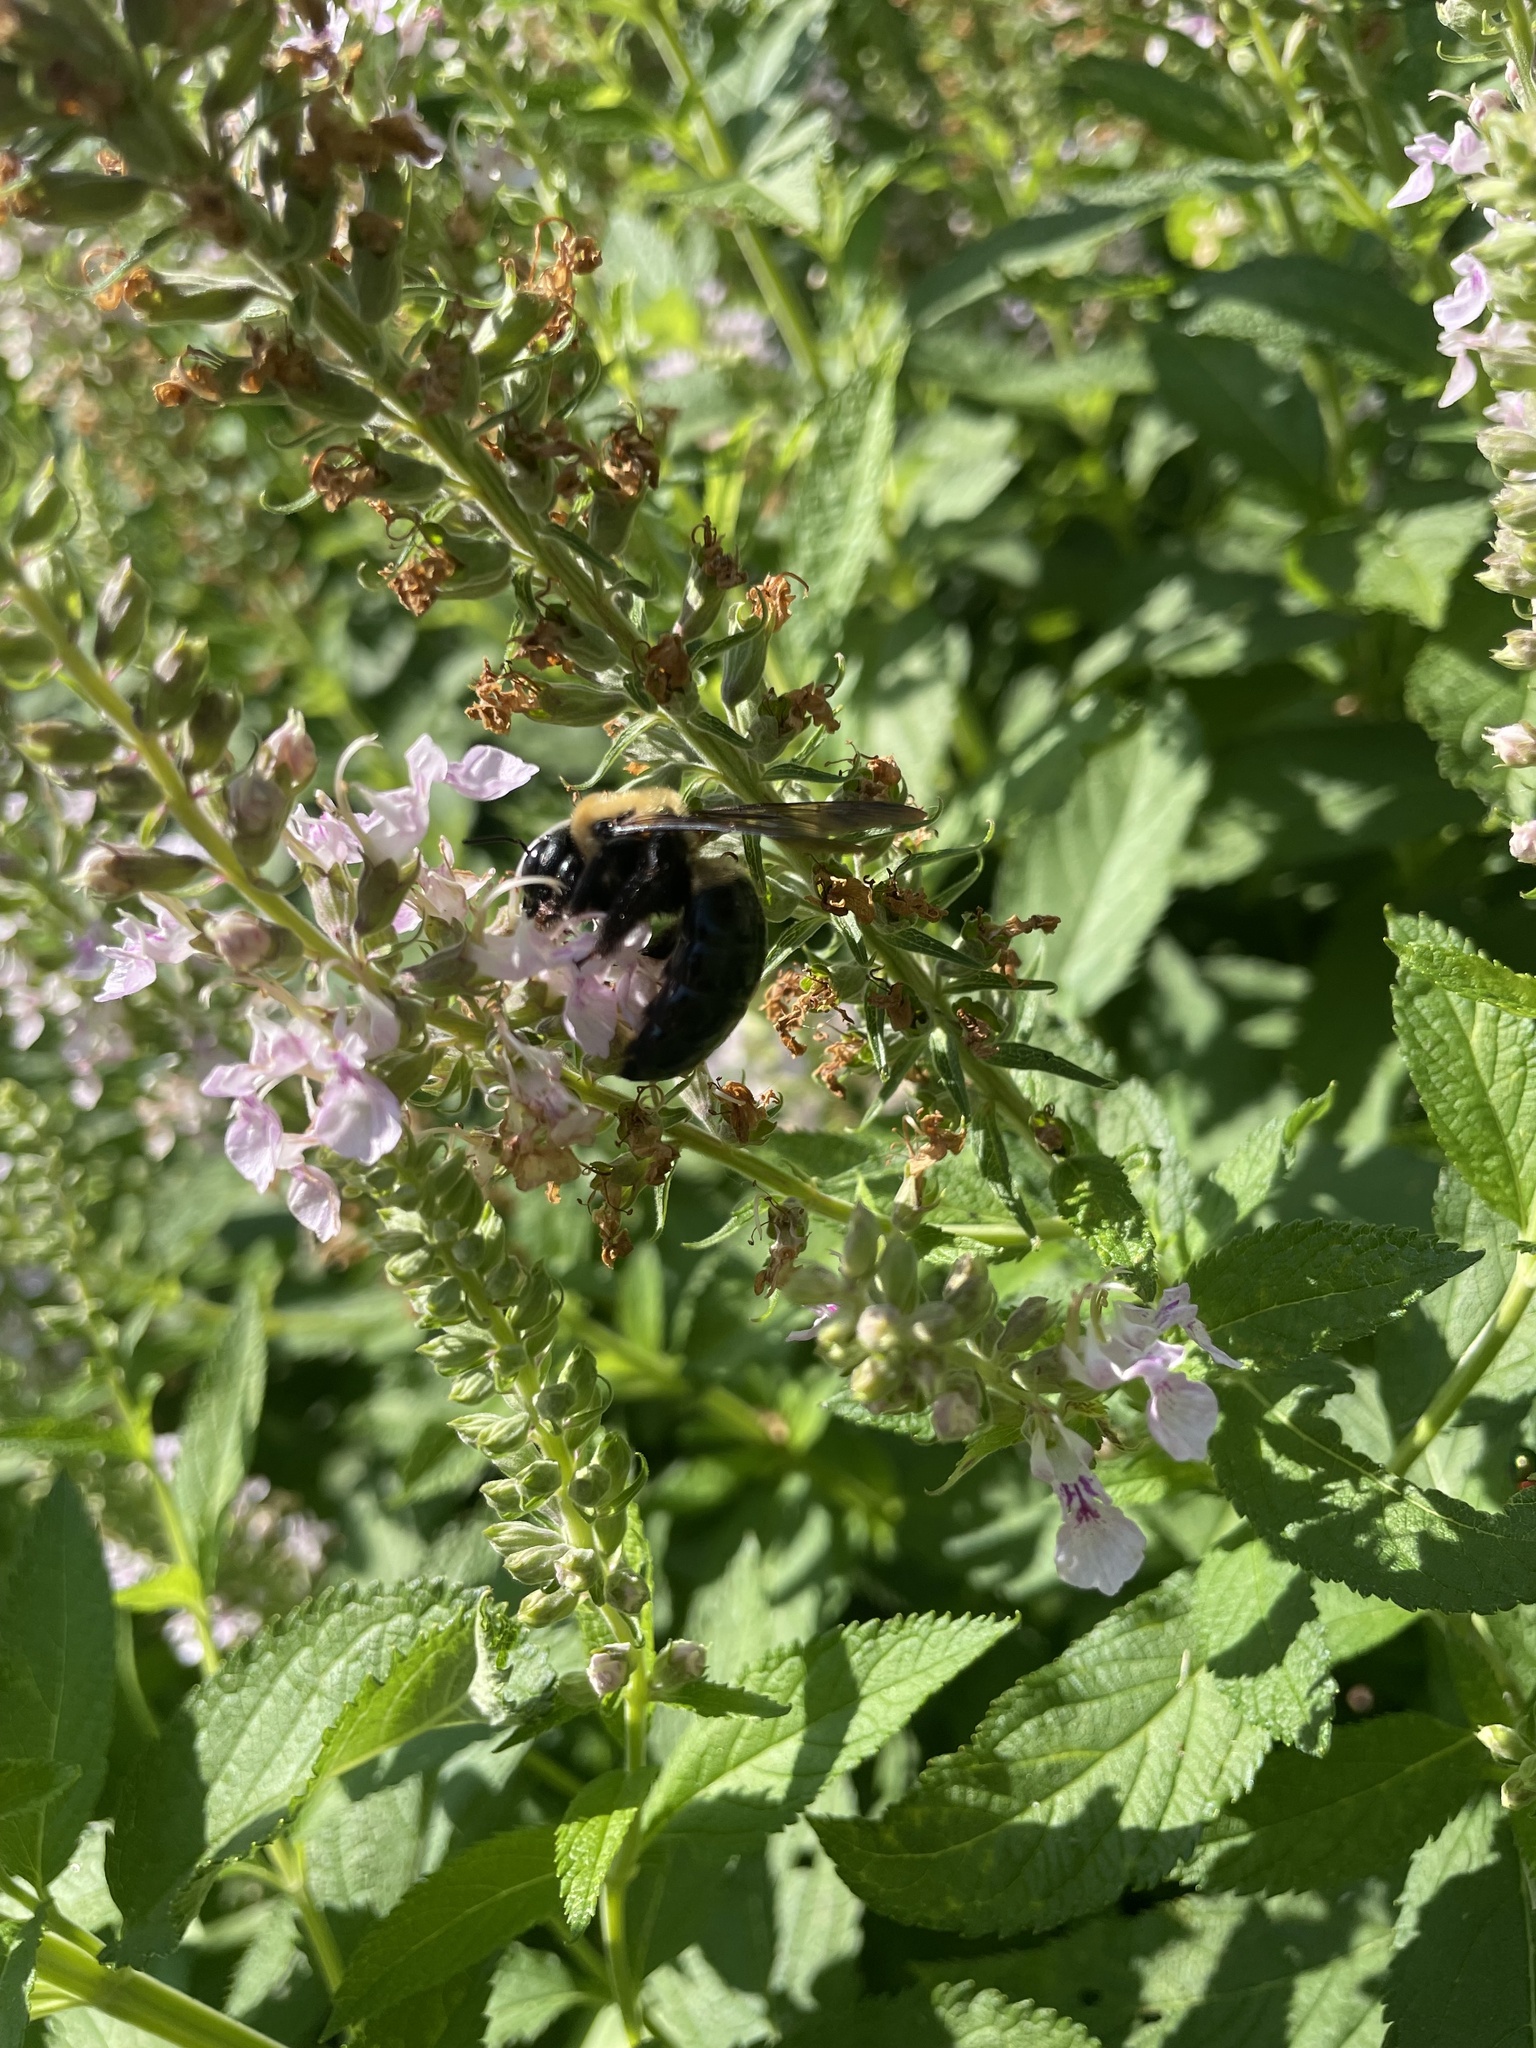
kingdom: Animalia
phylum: Arthropoda
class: Insecta
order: Hymenoptera
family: Apidae
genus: Xylocopa
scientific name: Xylocopa virginica
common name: Carpenter bee
